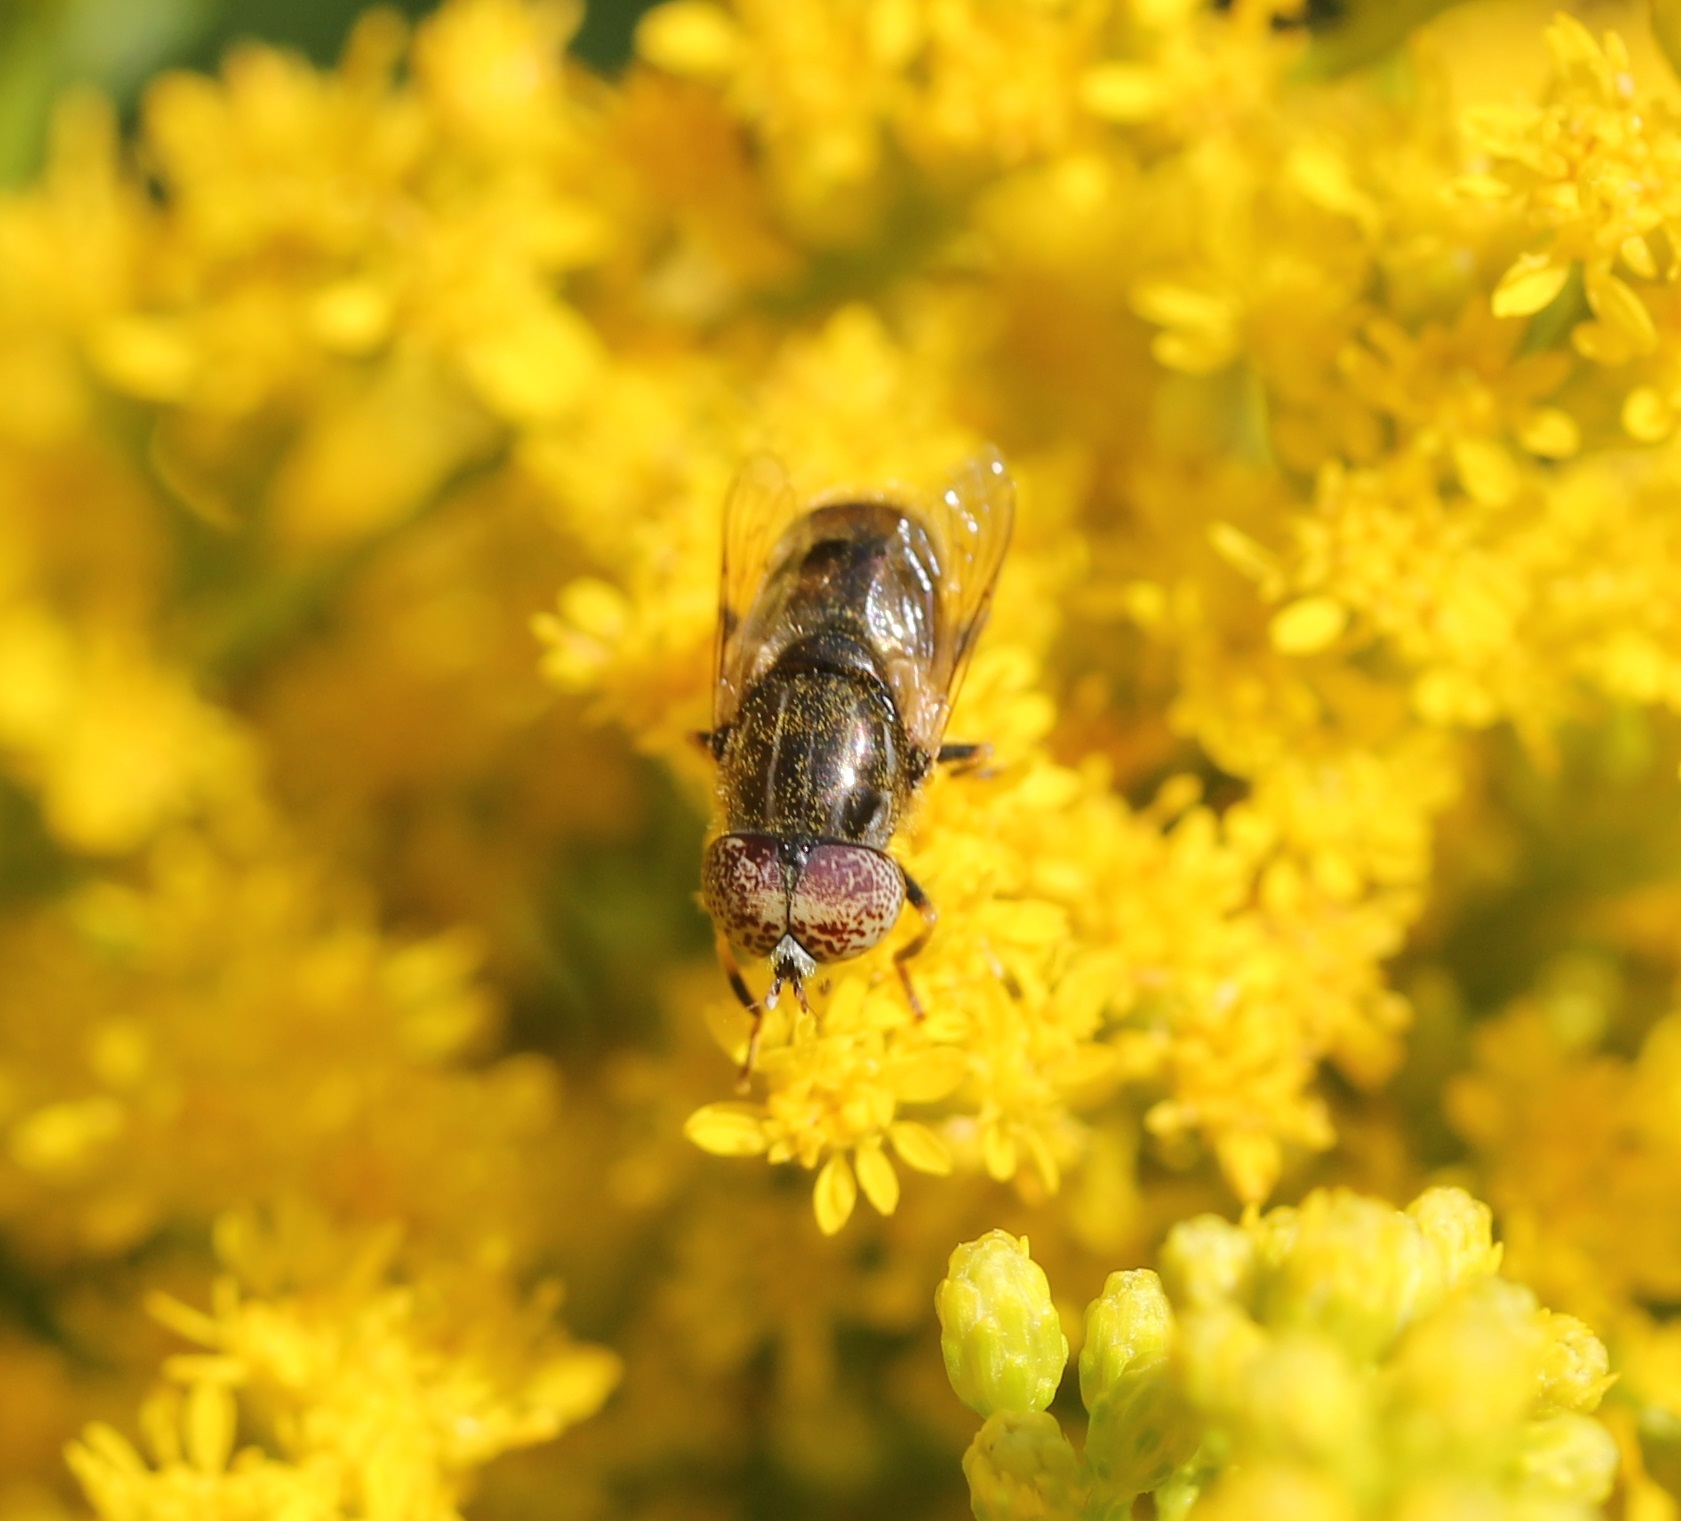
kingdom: Animalia
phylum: Arthropoda
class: Insecta
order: Diptera
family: Syrphidae
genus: Eristalinus
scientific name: Eristalinus aeneus
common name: Syrphid fly
